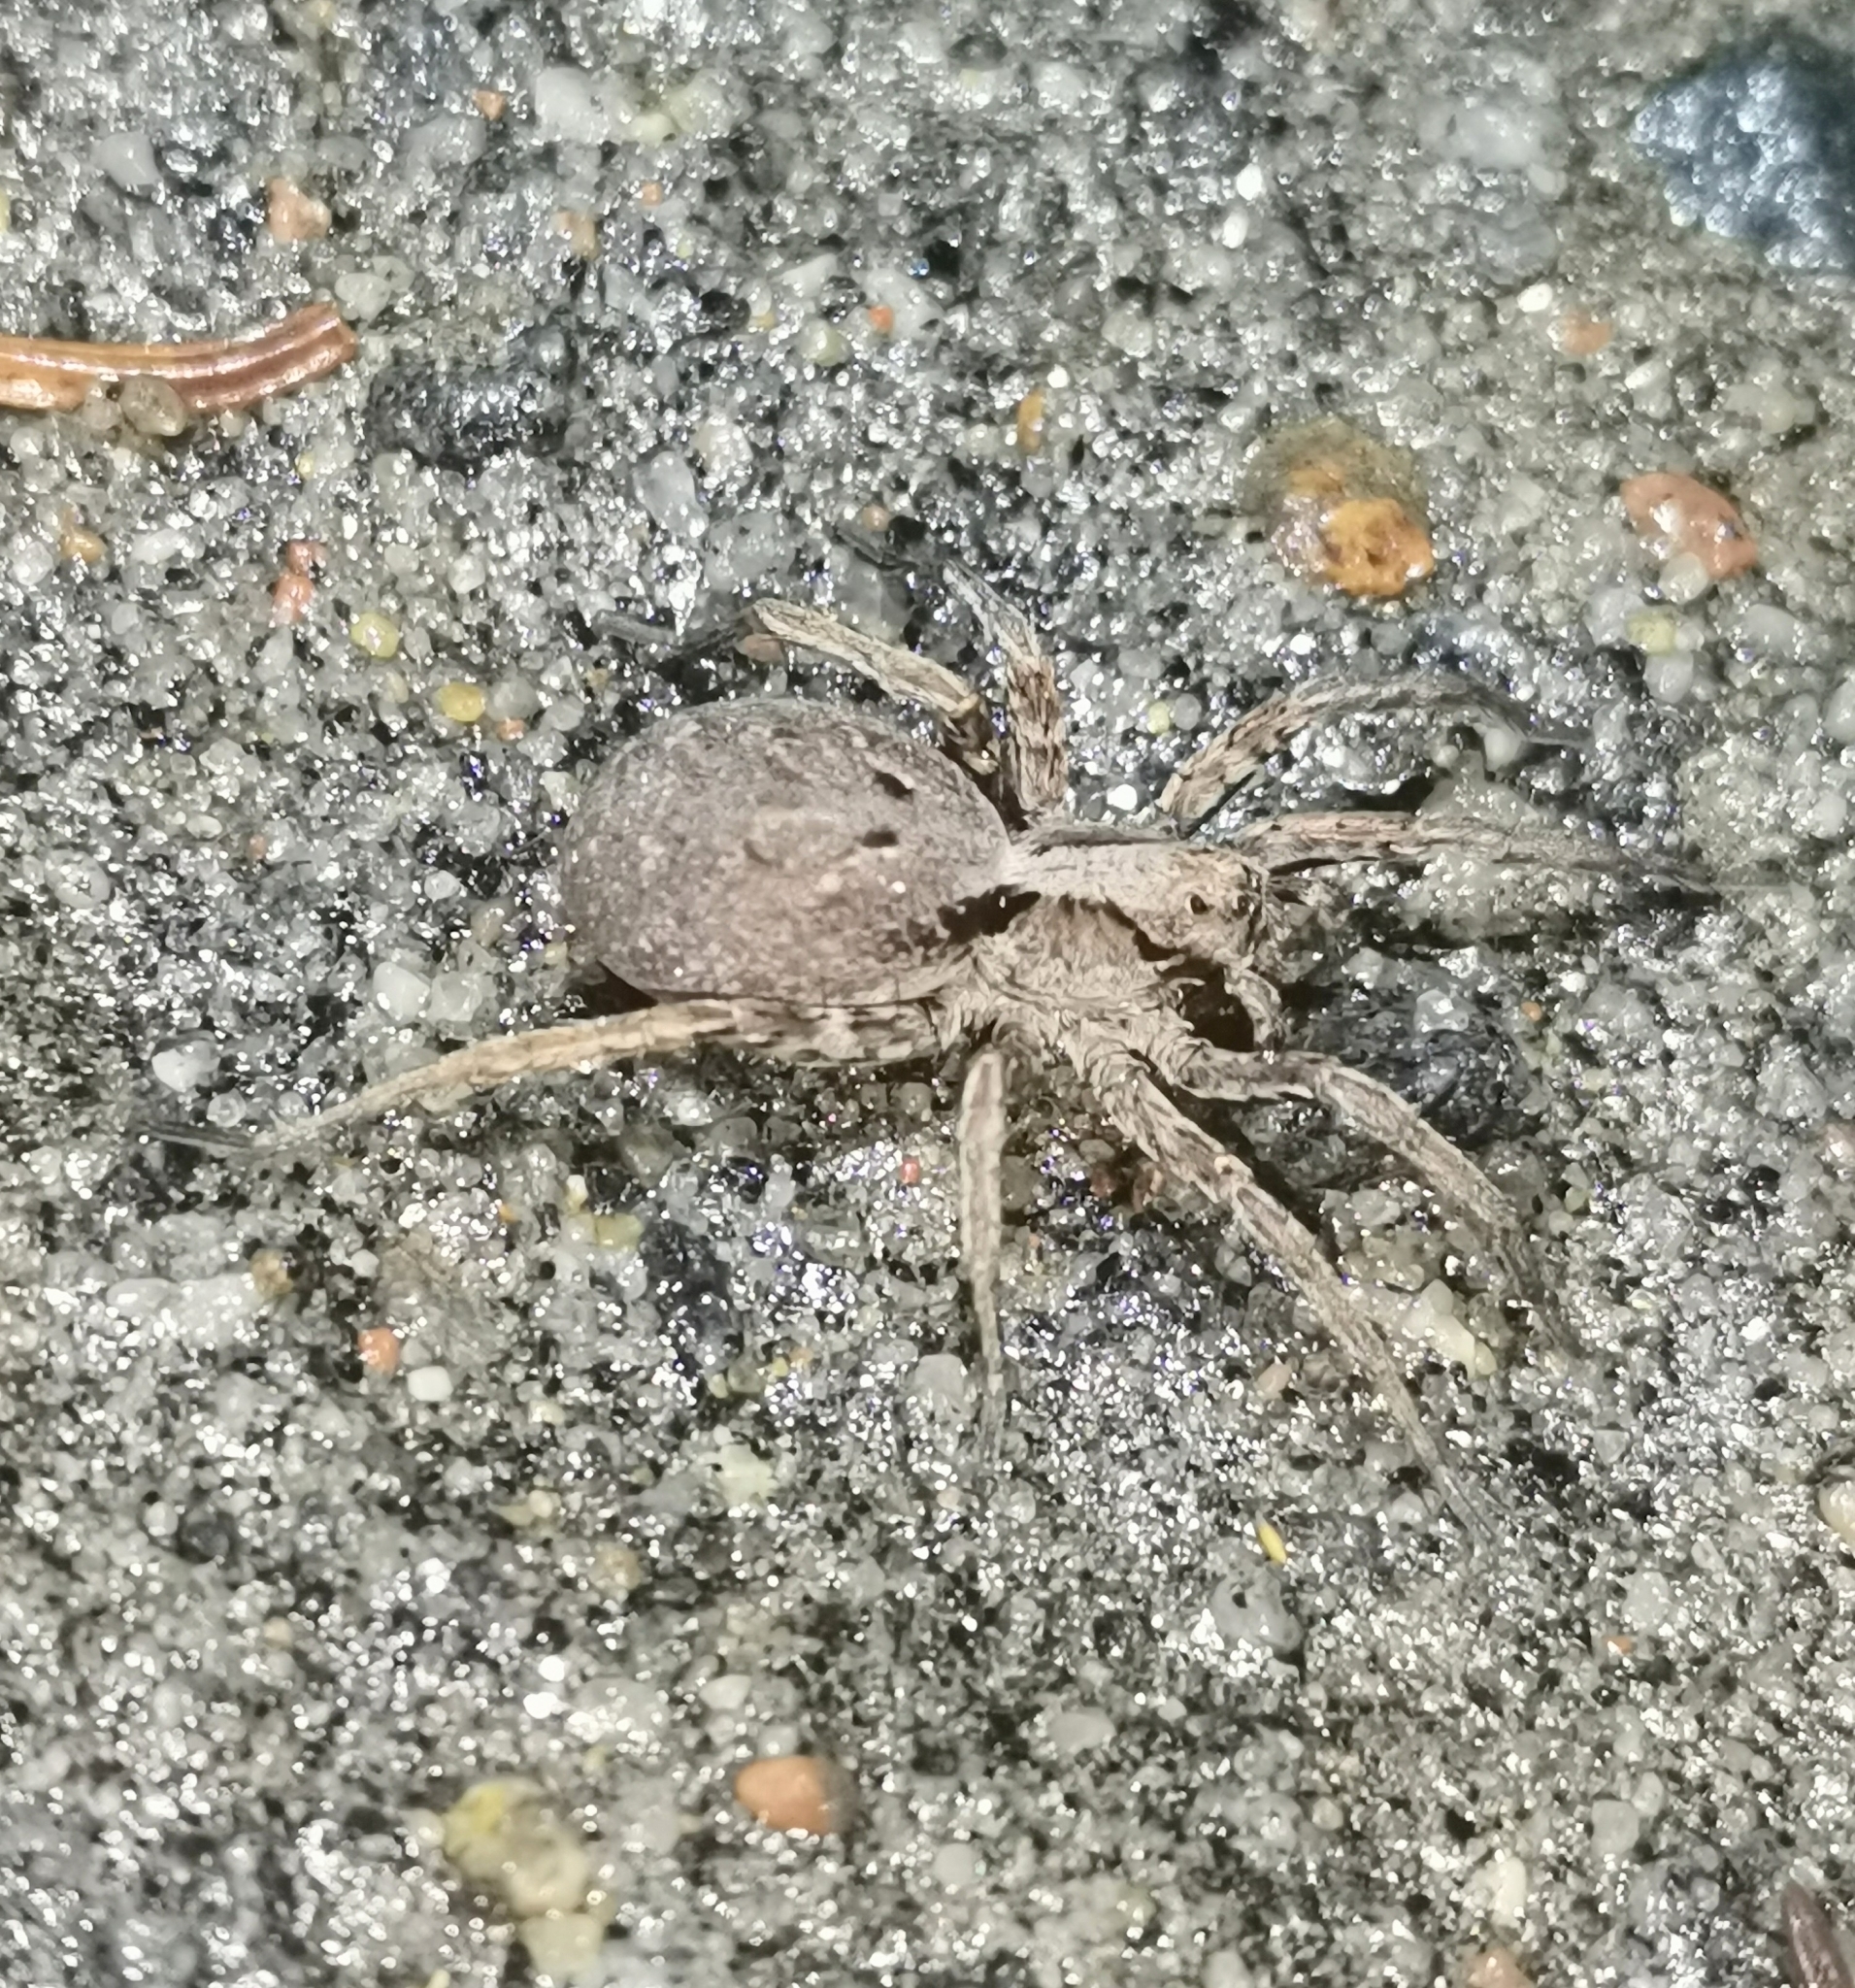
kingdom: Animalia
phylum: Arthropoda
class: Arachnida
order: Araneae
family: Lycosidae
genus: Alopecosa
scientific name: Alopecosa inquilina
